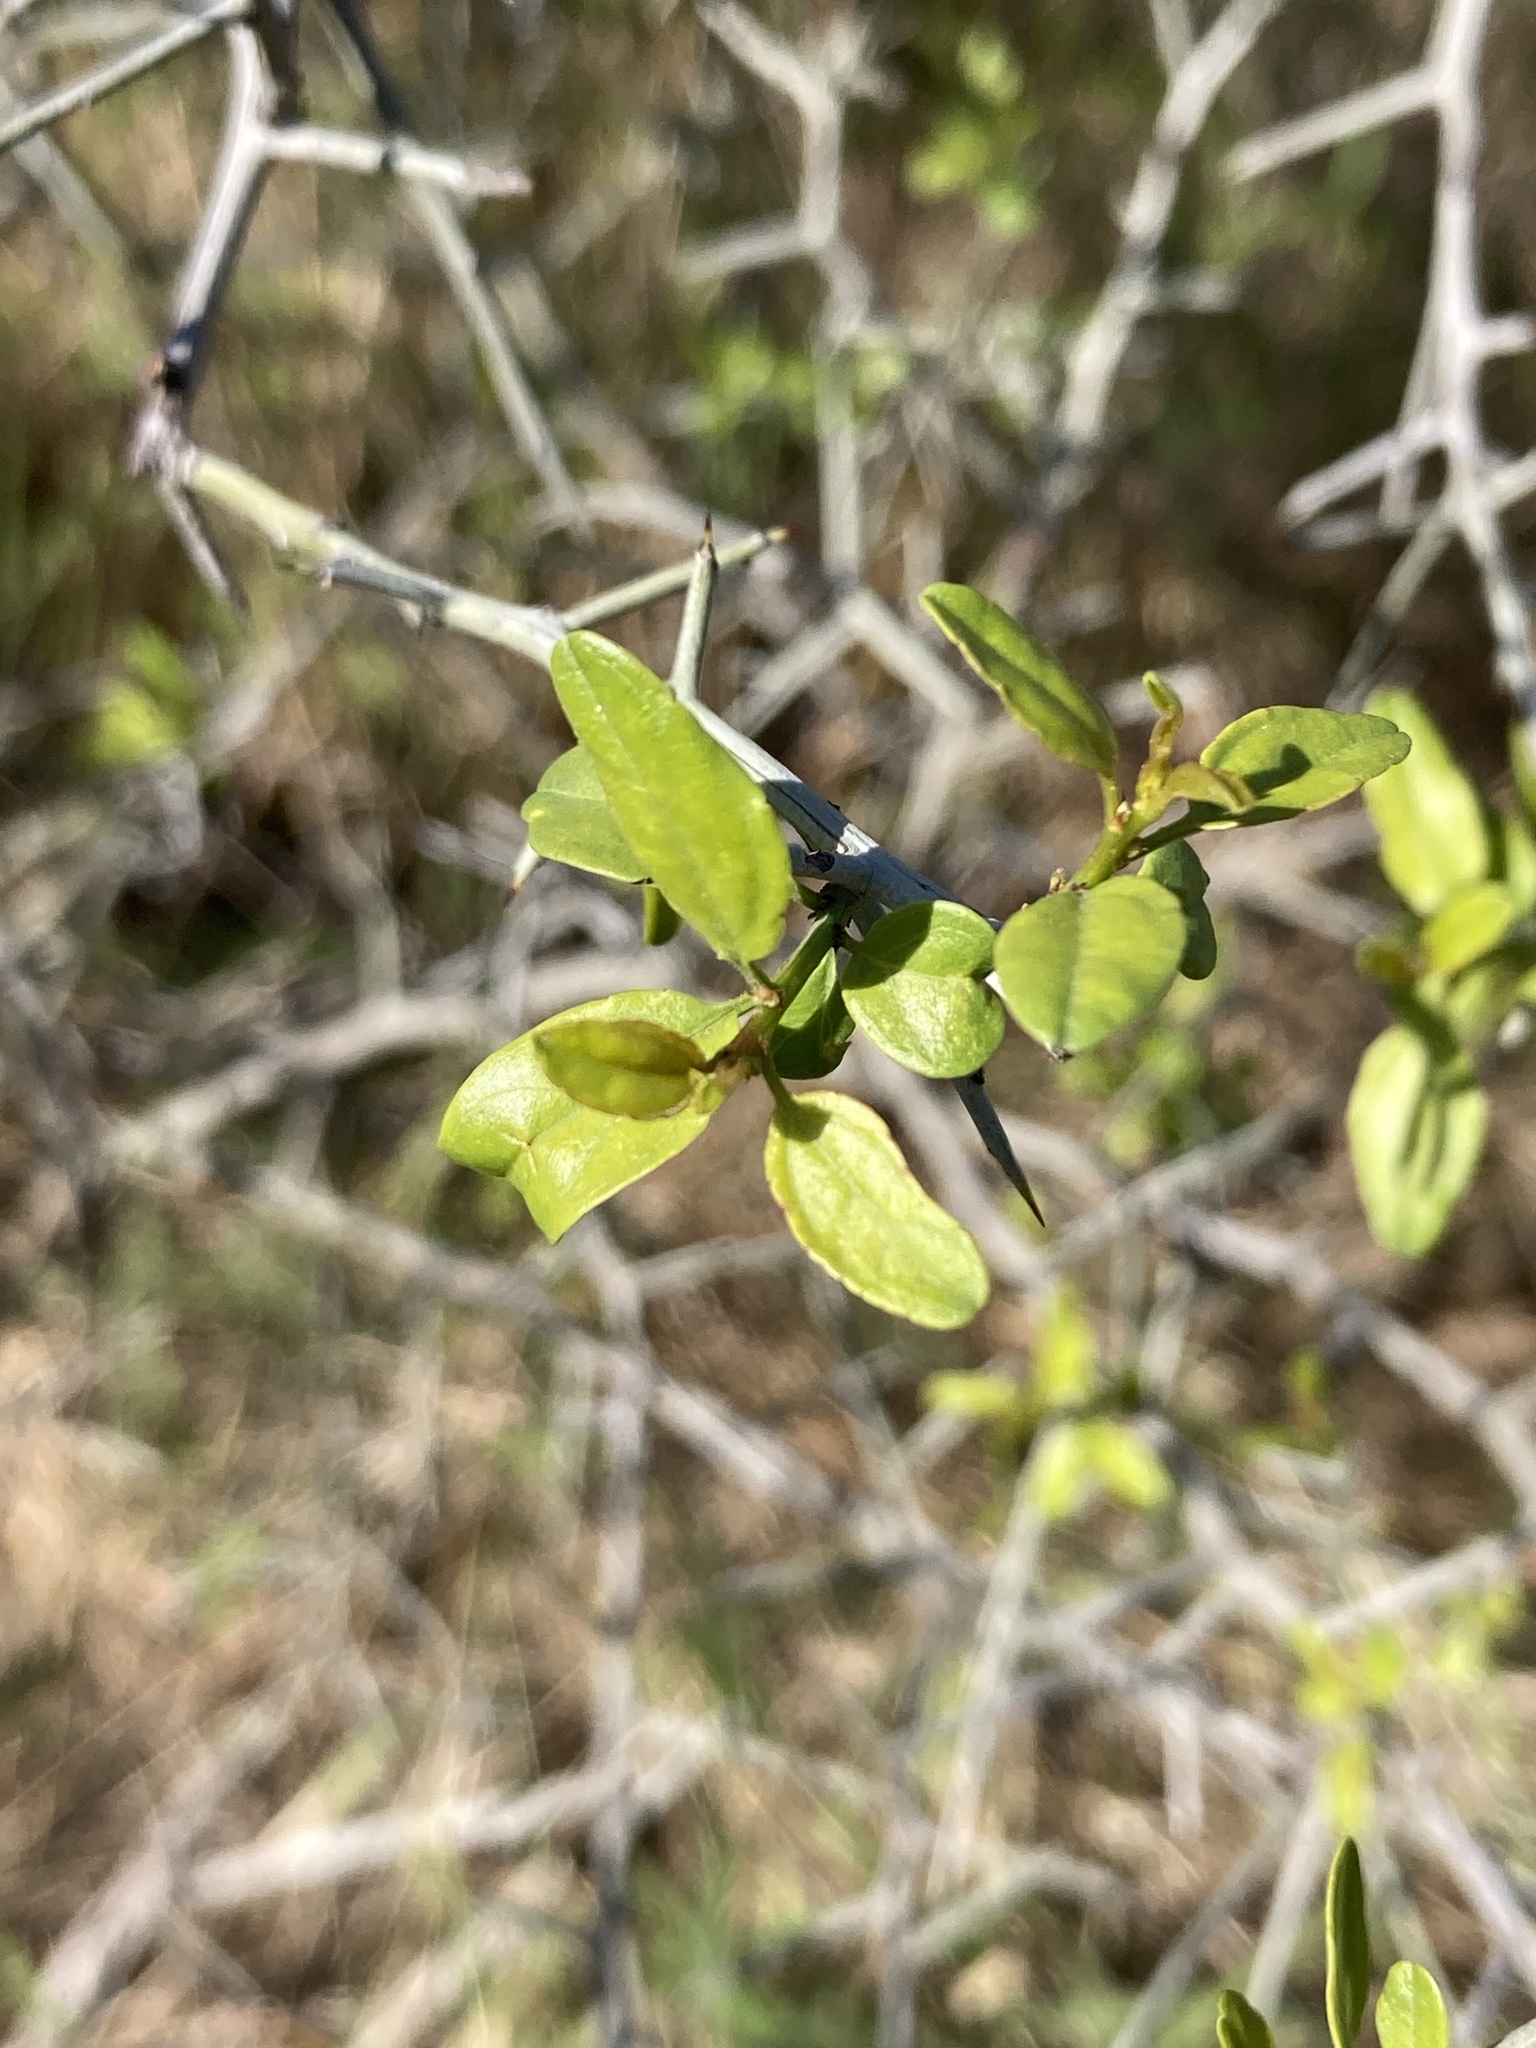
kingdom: Plantae
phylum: Tracheophyta
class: Magnoliopsida
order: Rosales
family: Rhamnaceae
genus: Sarcomphalus
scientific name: Sarcomphalus obtusifolius
